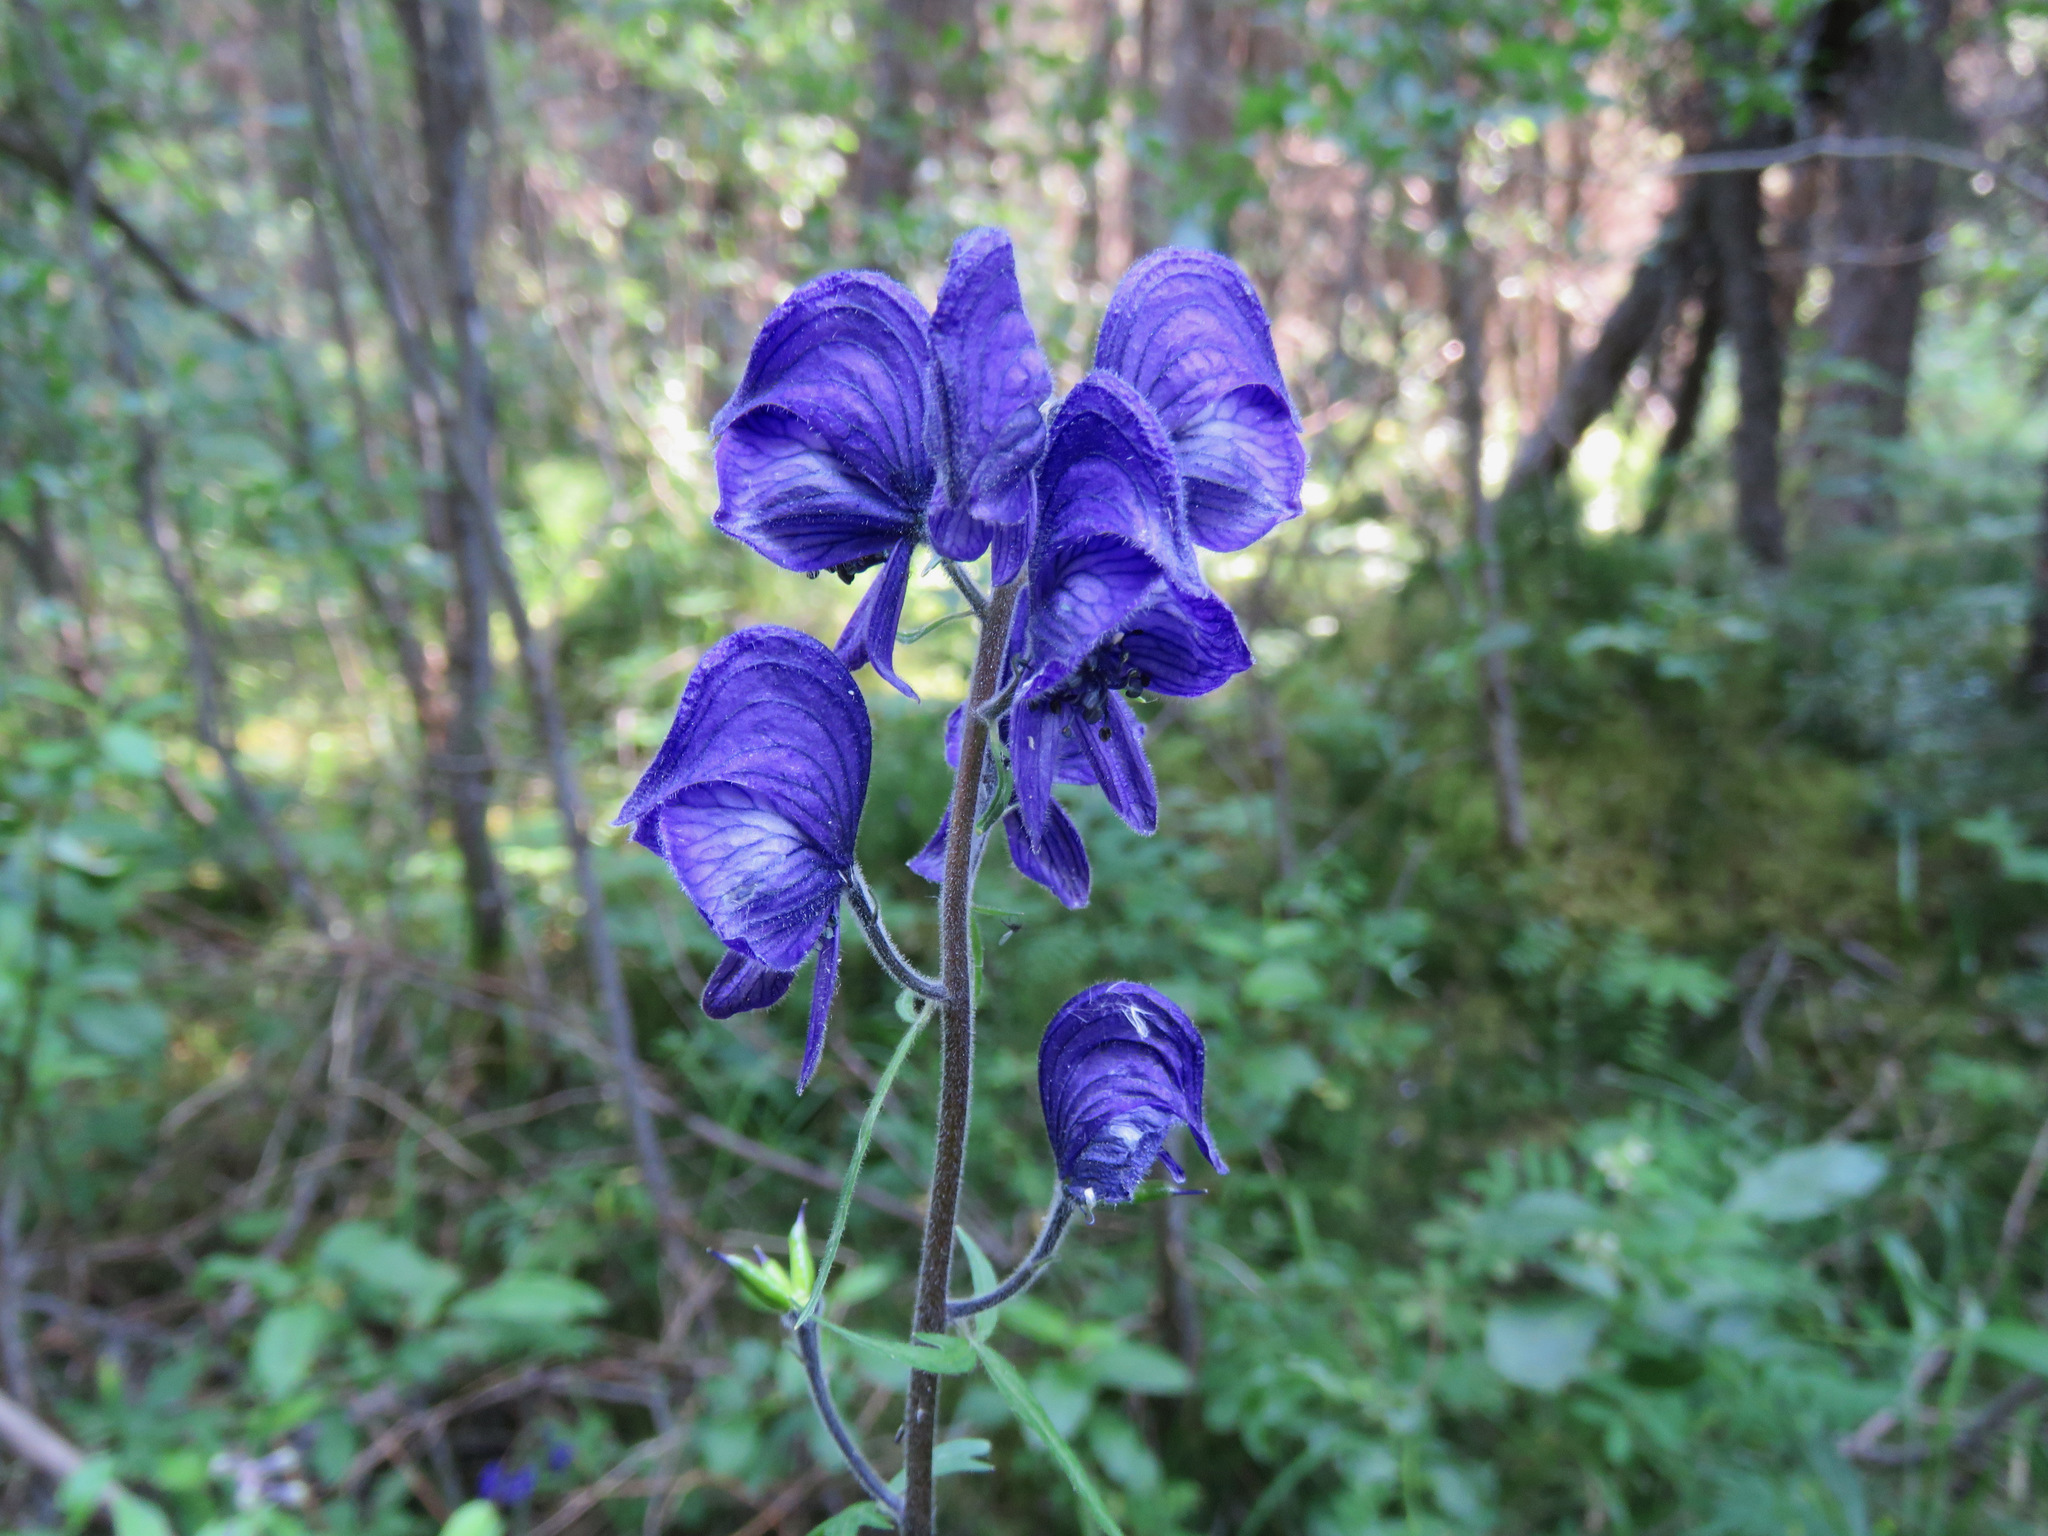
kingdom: Plantae
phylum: Tracheophyta
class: Magnoliopsida
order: Ranunculales
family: Ranunculaceae
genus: Aconitum
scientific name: Aconitum delphiniifolium
